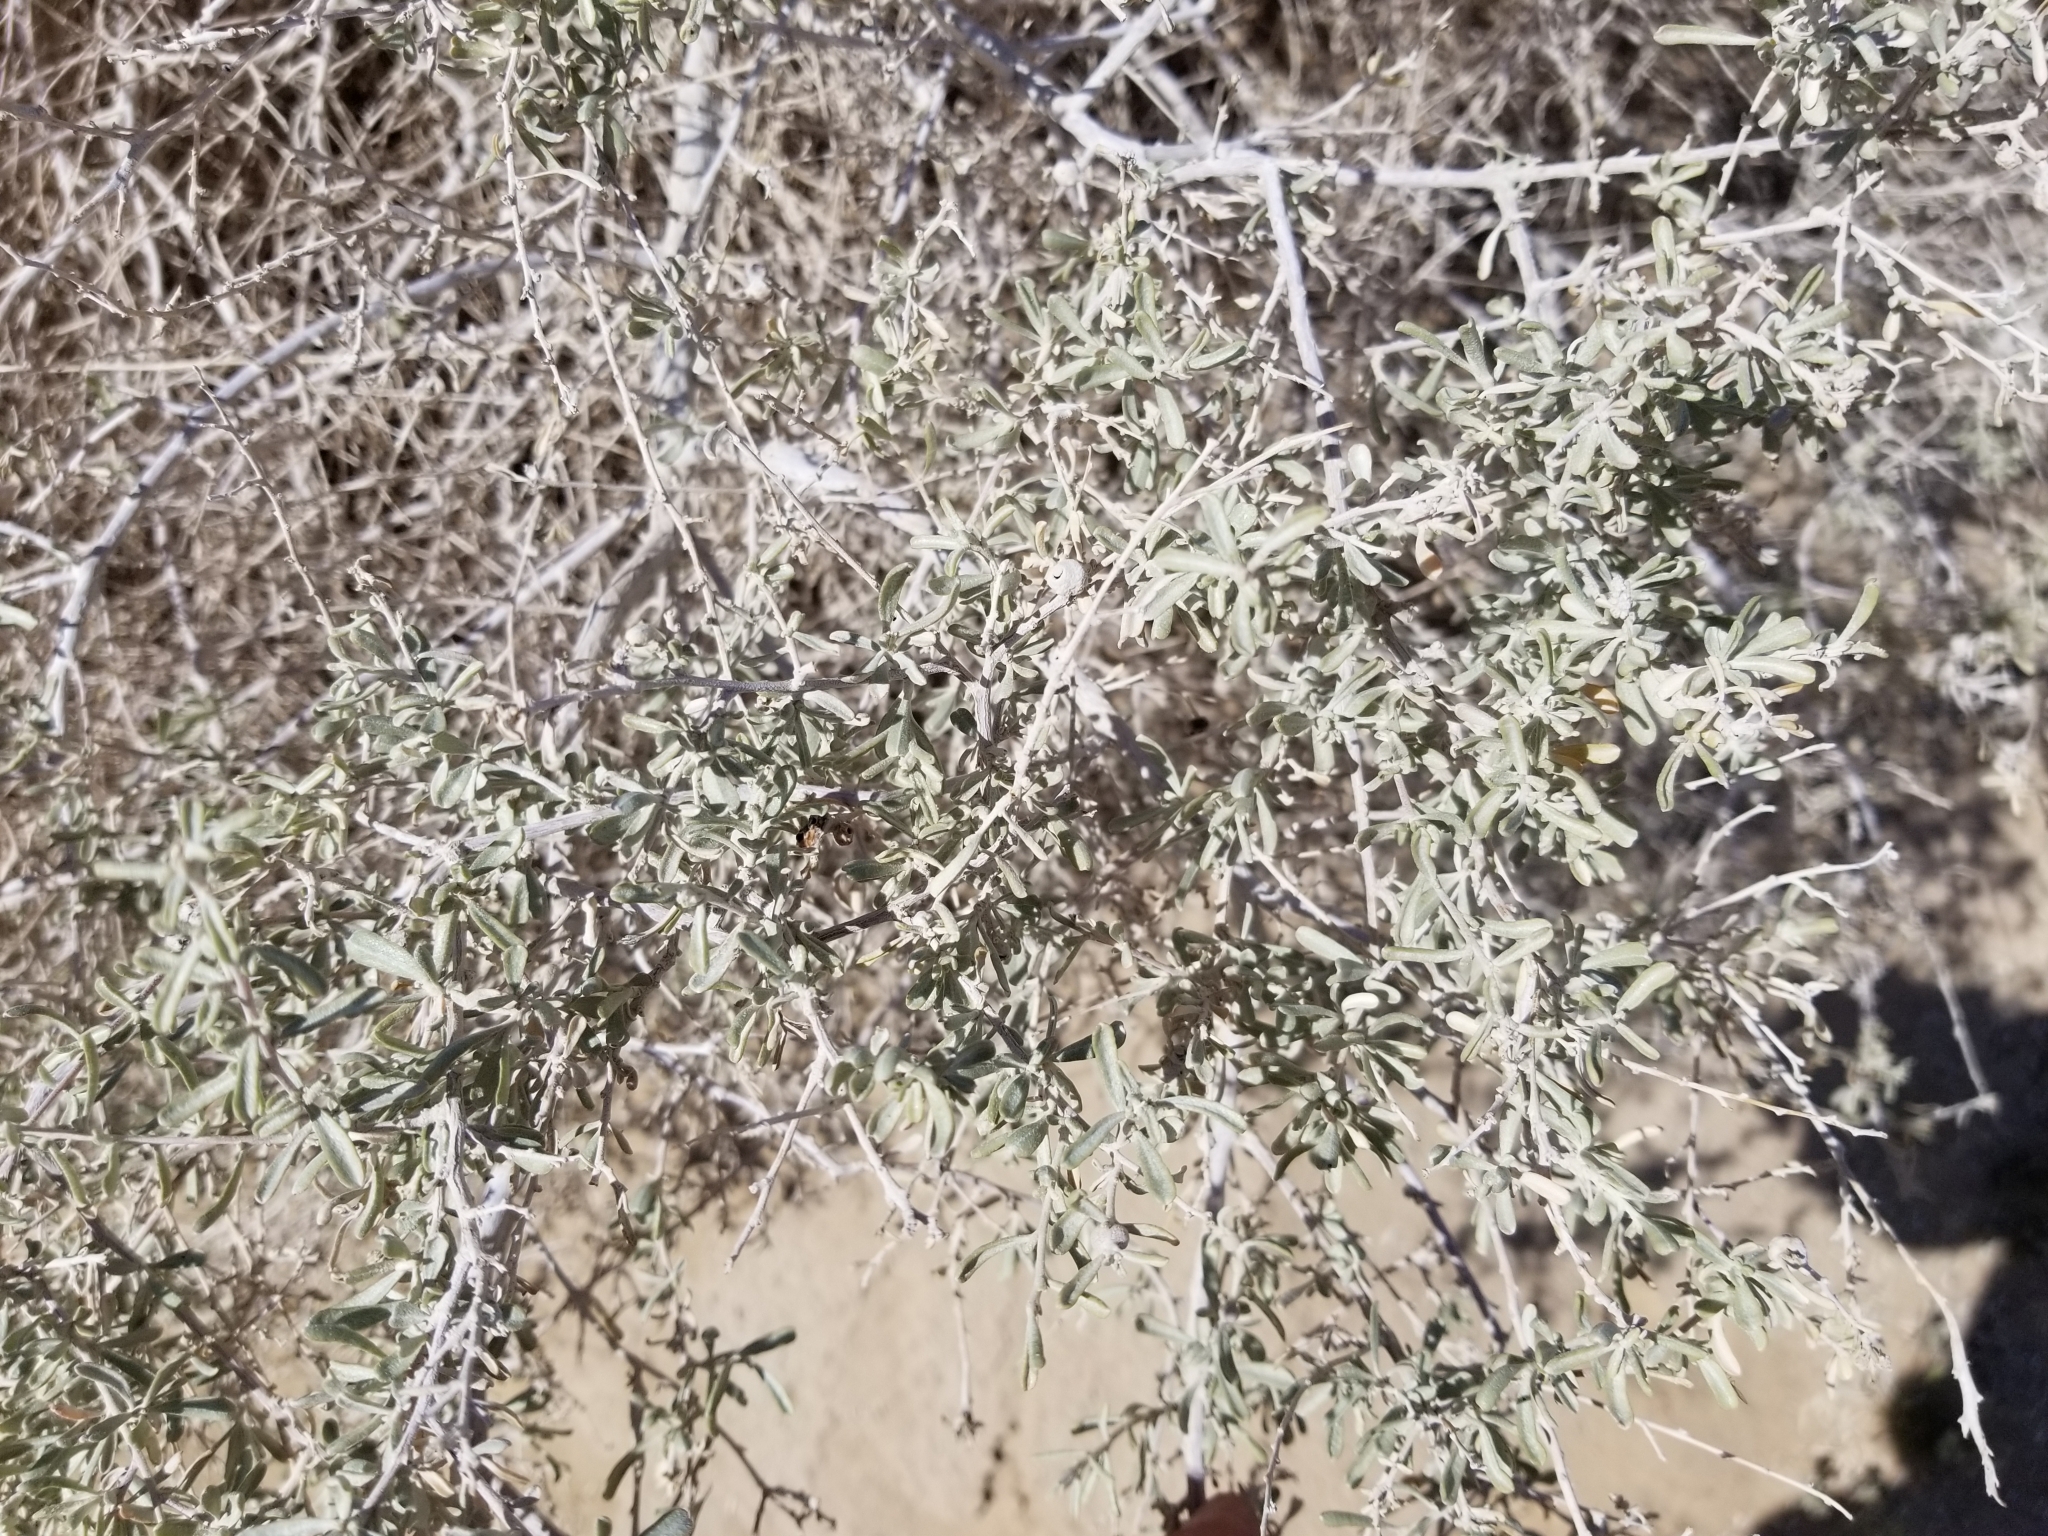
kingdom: Plantae
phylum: Tracheophyta
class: Magnoliopsida
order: Caryophyllales
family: Amaranthaceae
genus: Atriplex
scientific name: Atriplex canescens
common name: Four-wing saltbush
